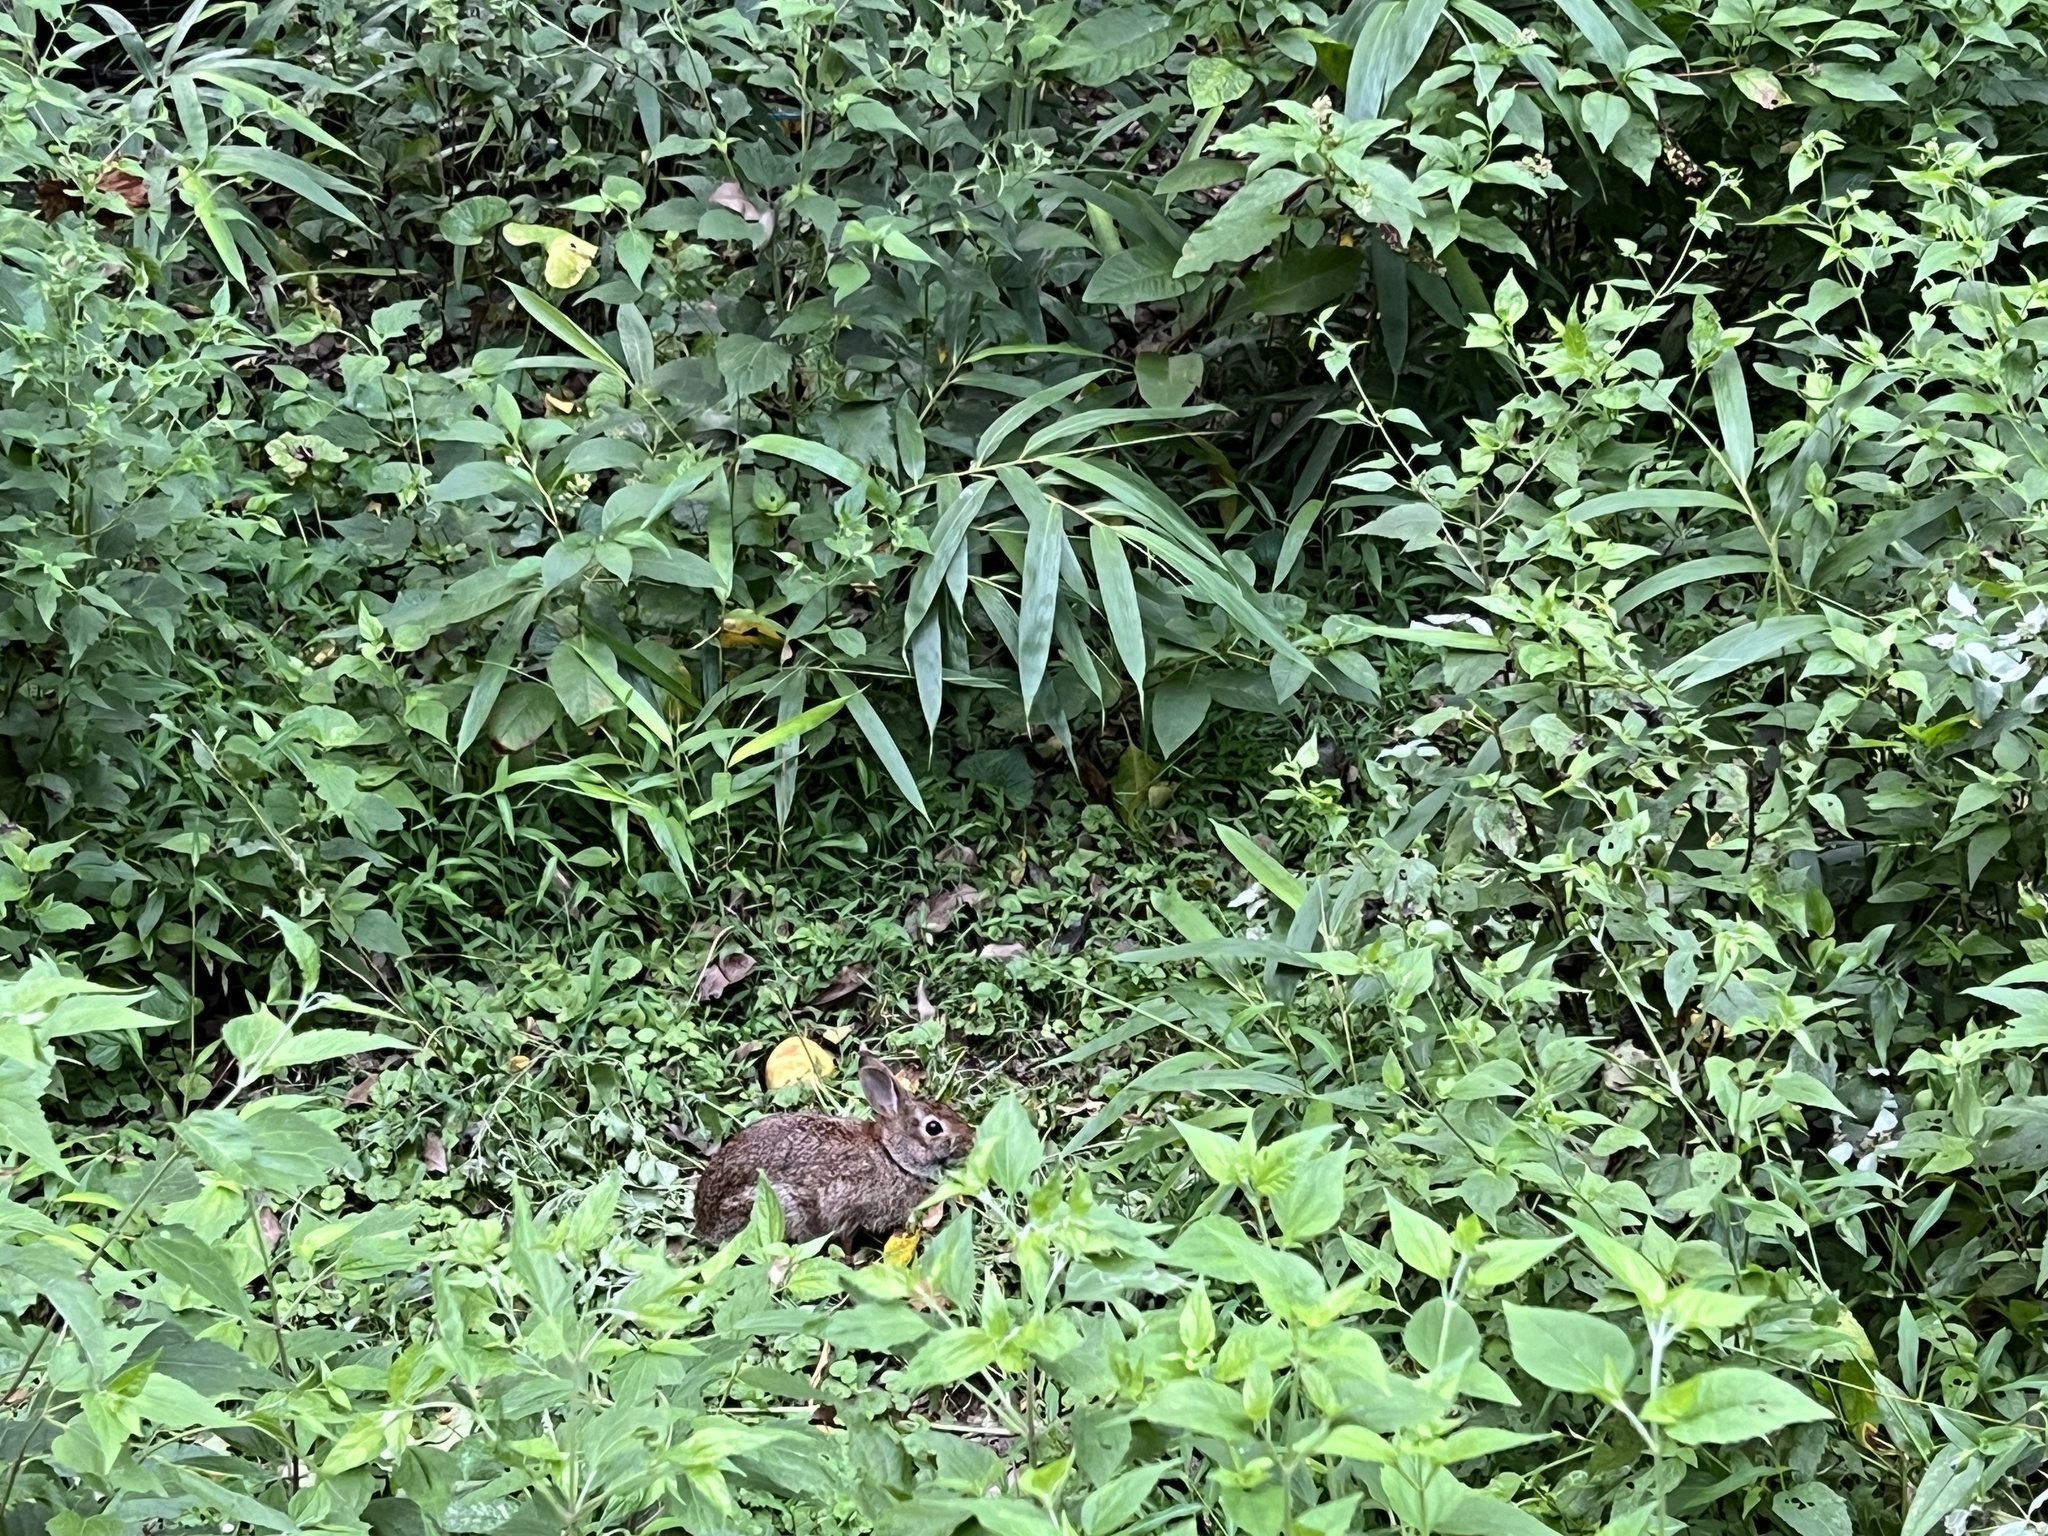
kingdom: Animalia
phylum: Chordata
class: Mammalia
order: Lagomorpha
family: Leporidae
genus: Sylvilagus
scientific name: Sylvilagus floridanus
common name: Eastern cottontail
